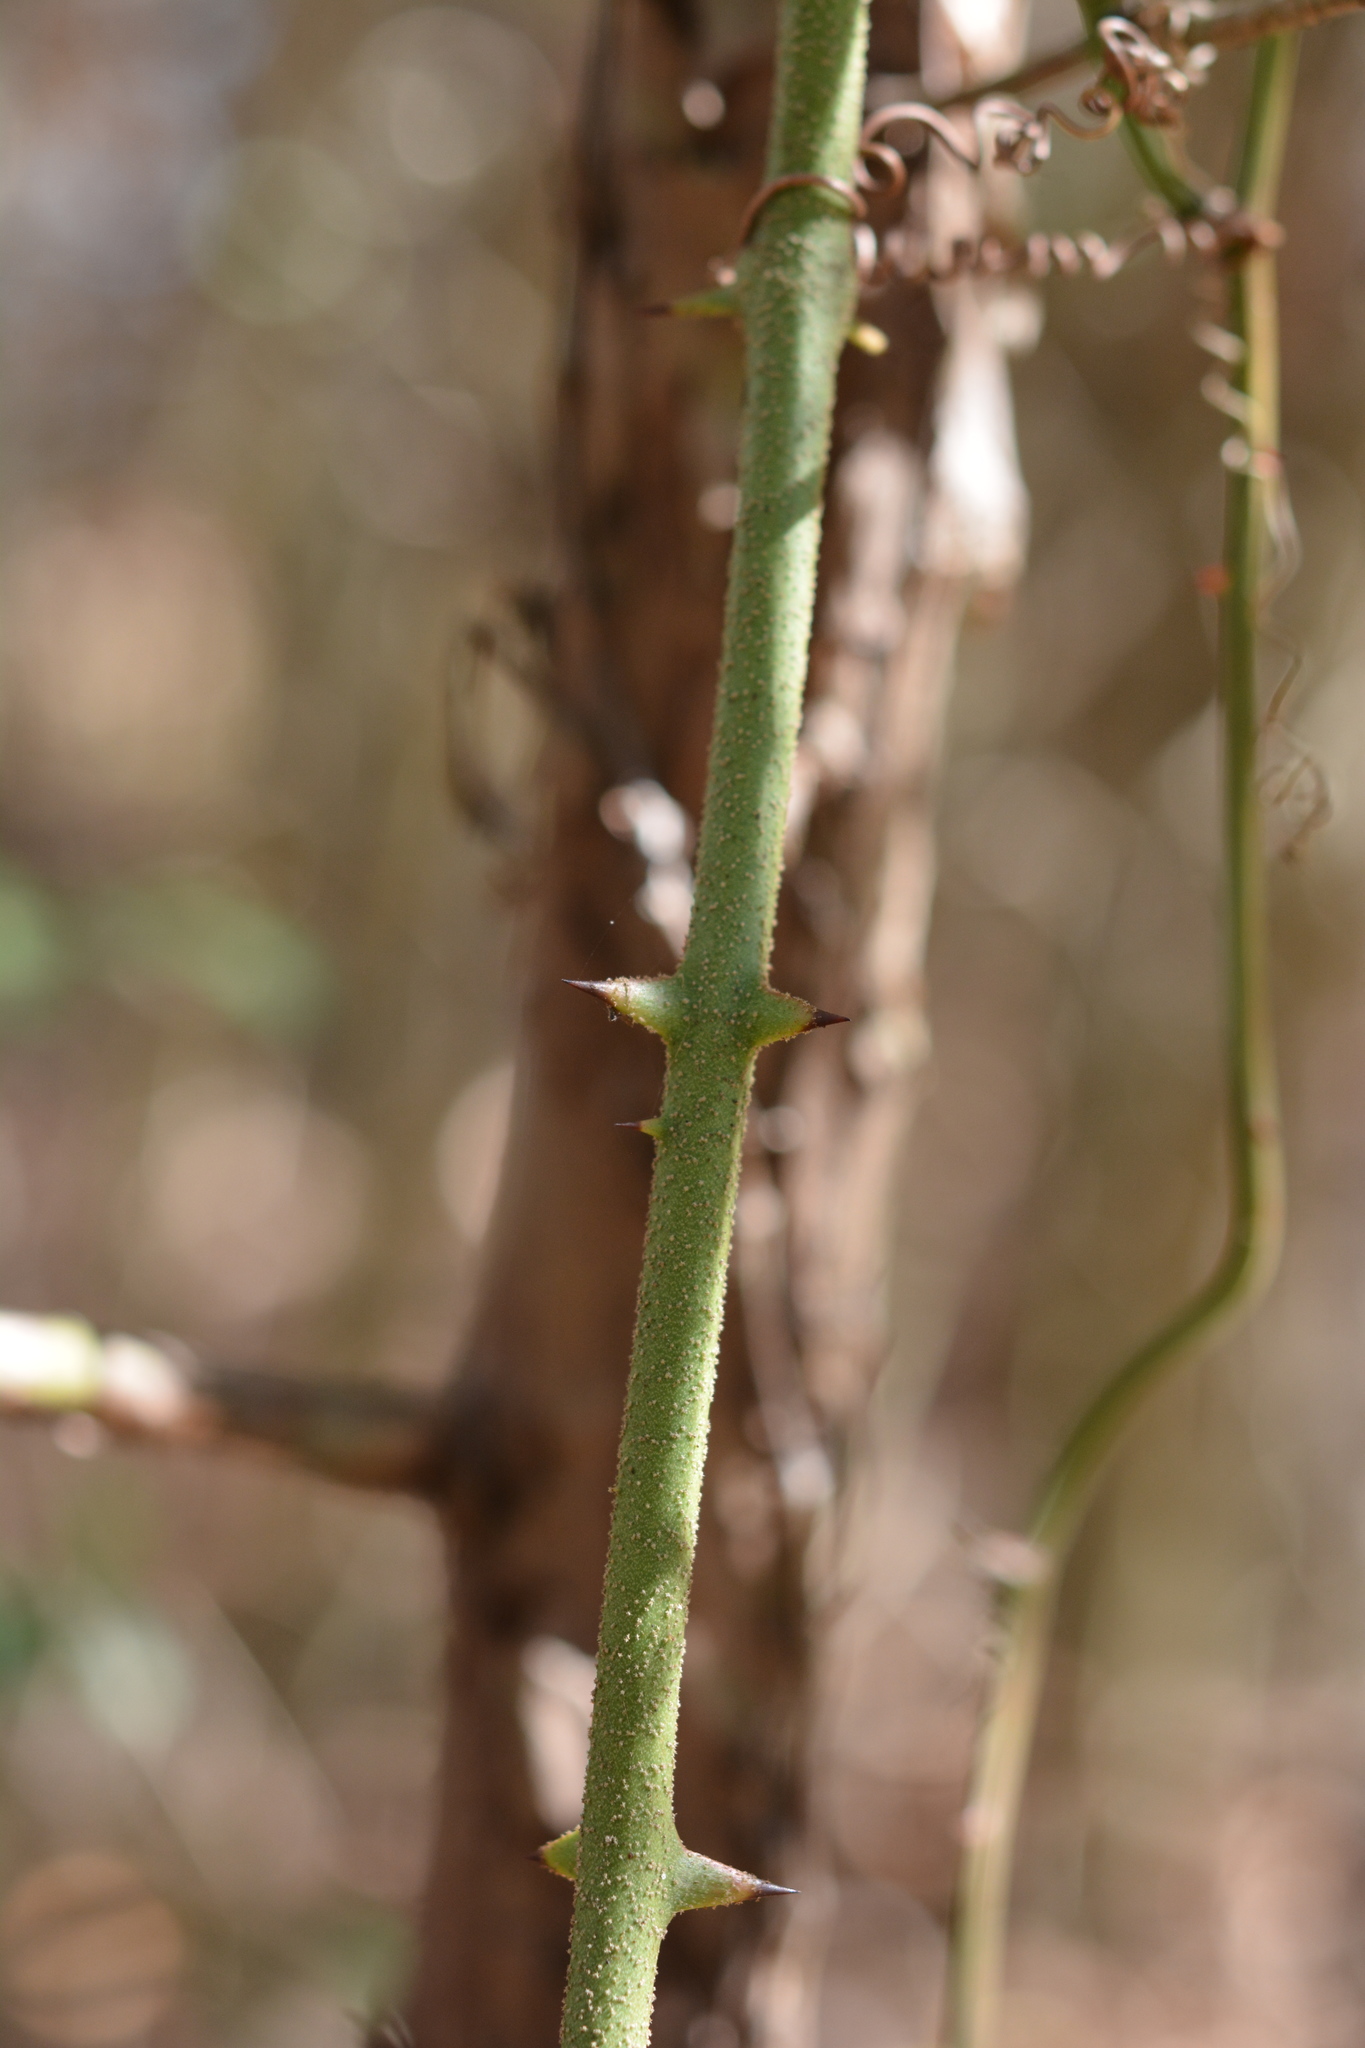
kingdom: Plantae
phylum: Tracheophyta
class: Liliopsida
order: Liliales
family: Smilacaceae
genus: Smilax
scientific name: Smilax rotundifolia
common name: Bullbriar
